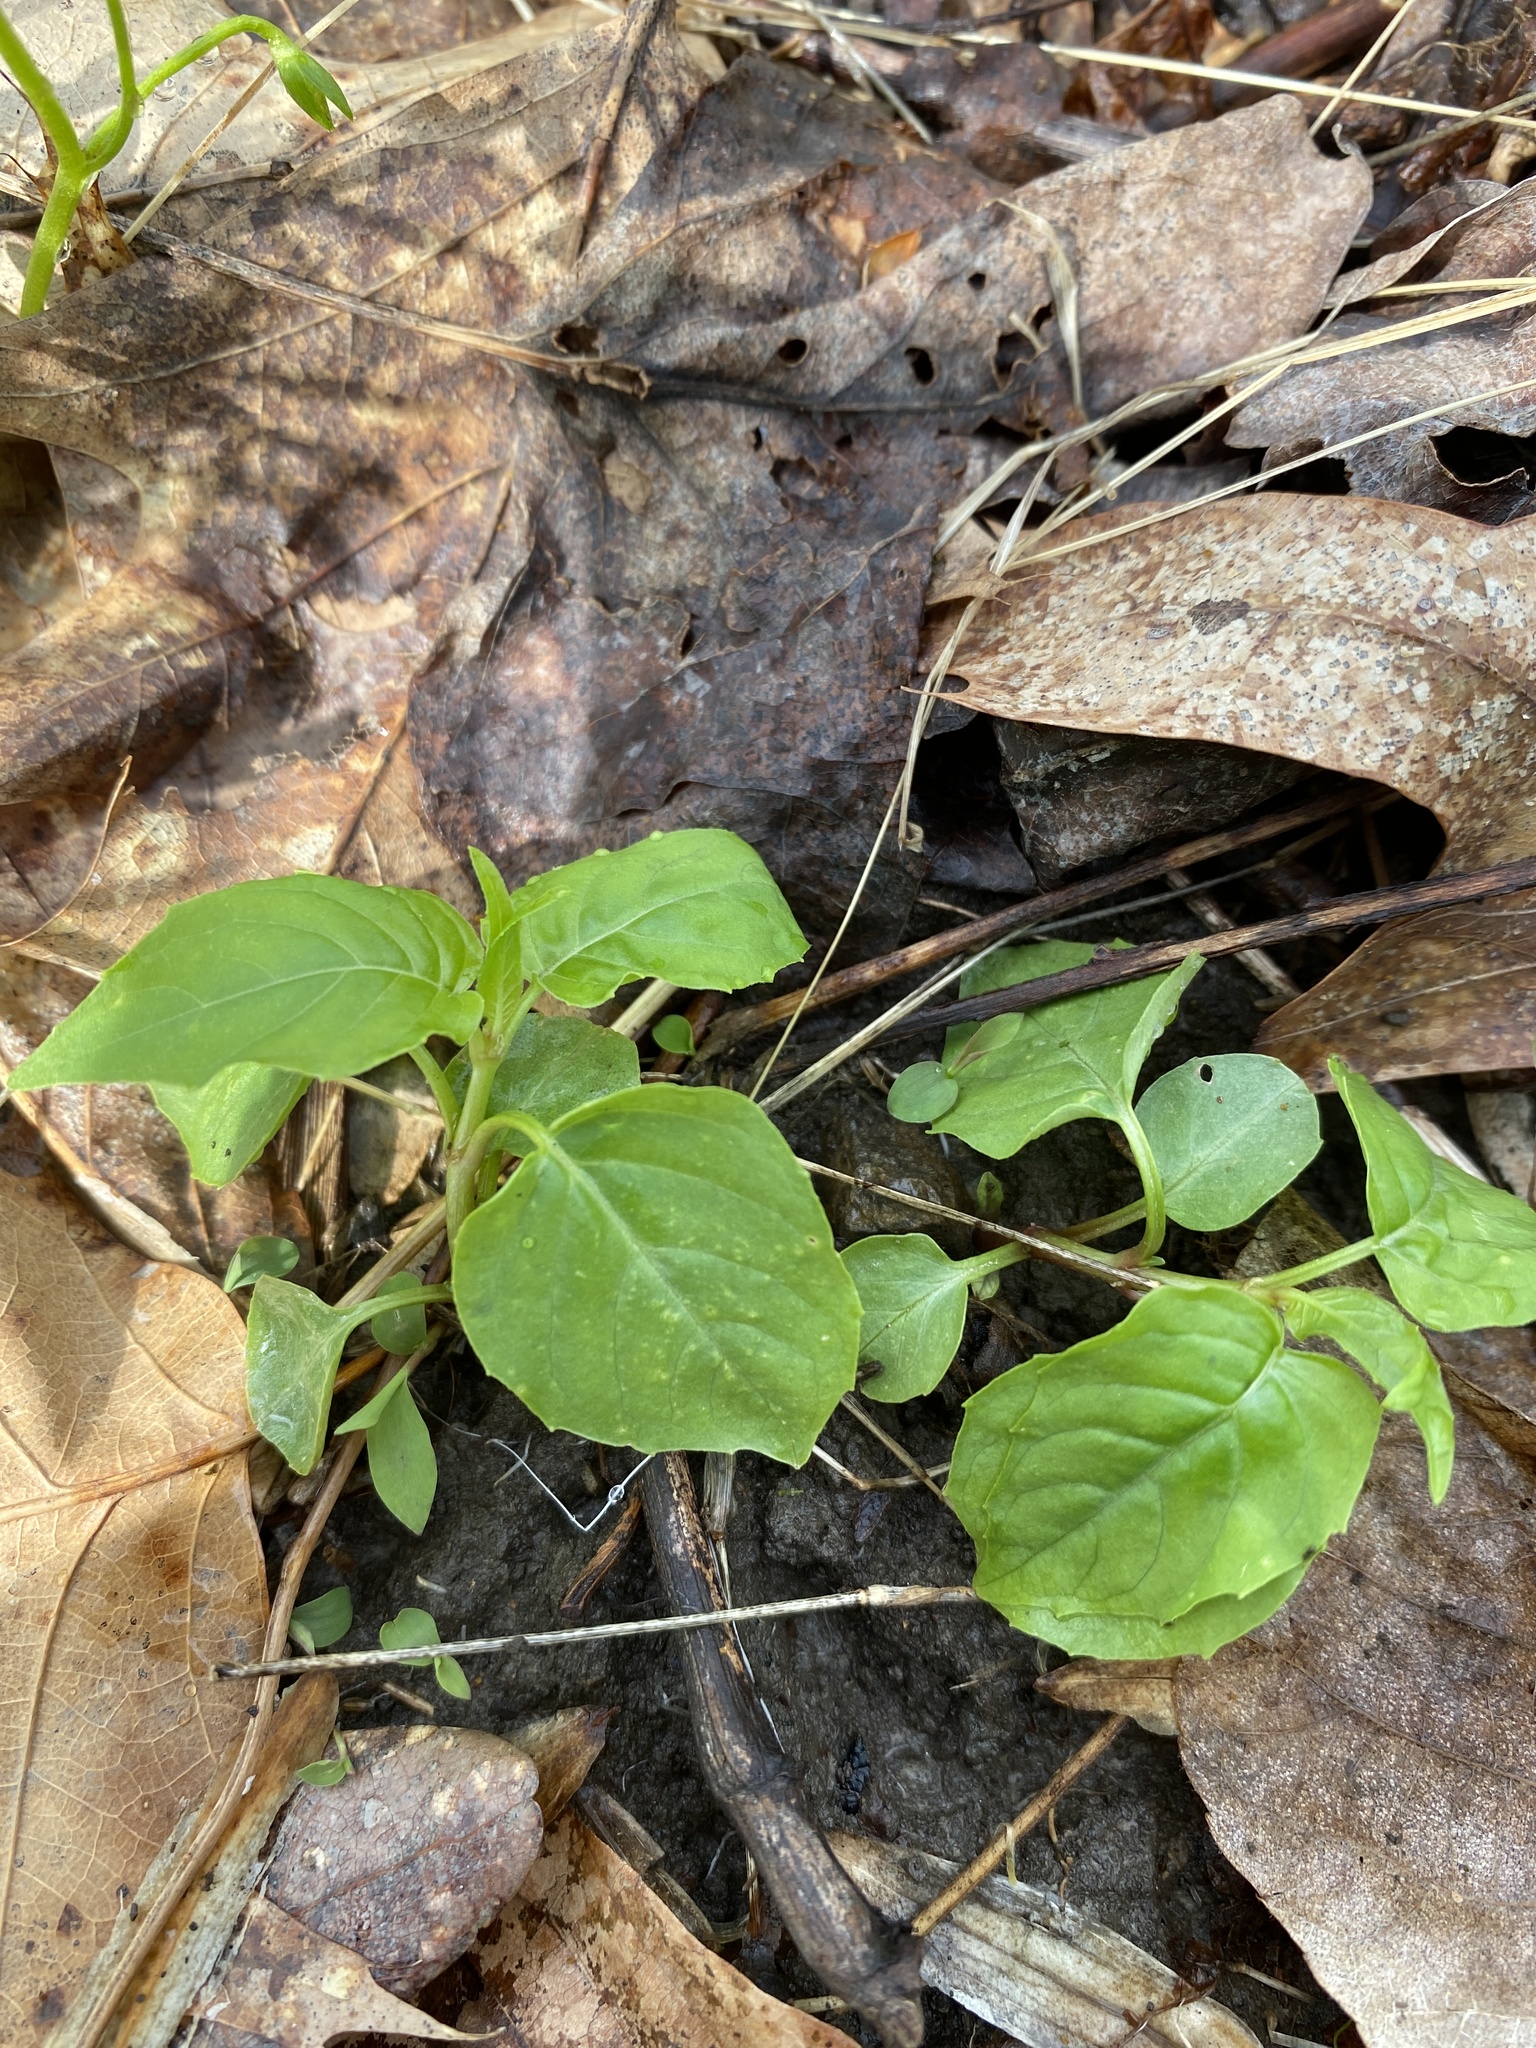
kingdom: Plantae
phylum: Tracheophyta
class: Magnoliopsida
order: Myrtales
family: Onagraceae
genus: Circaea
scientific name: Circaea canadensis
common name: Broad-leaved enchanter's nightshade
